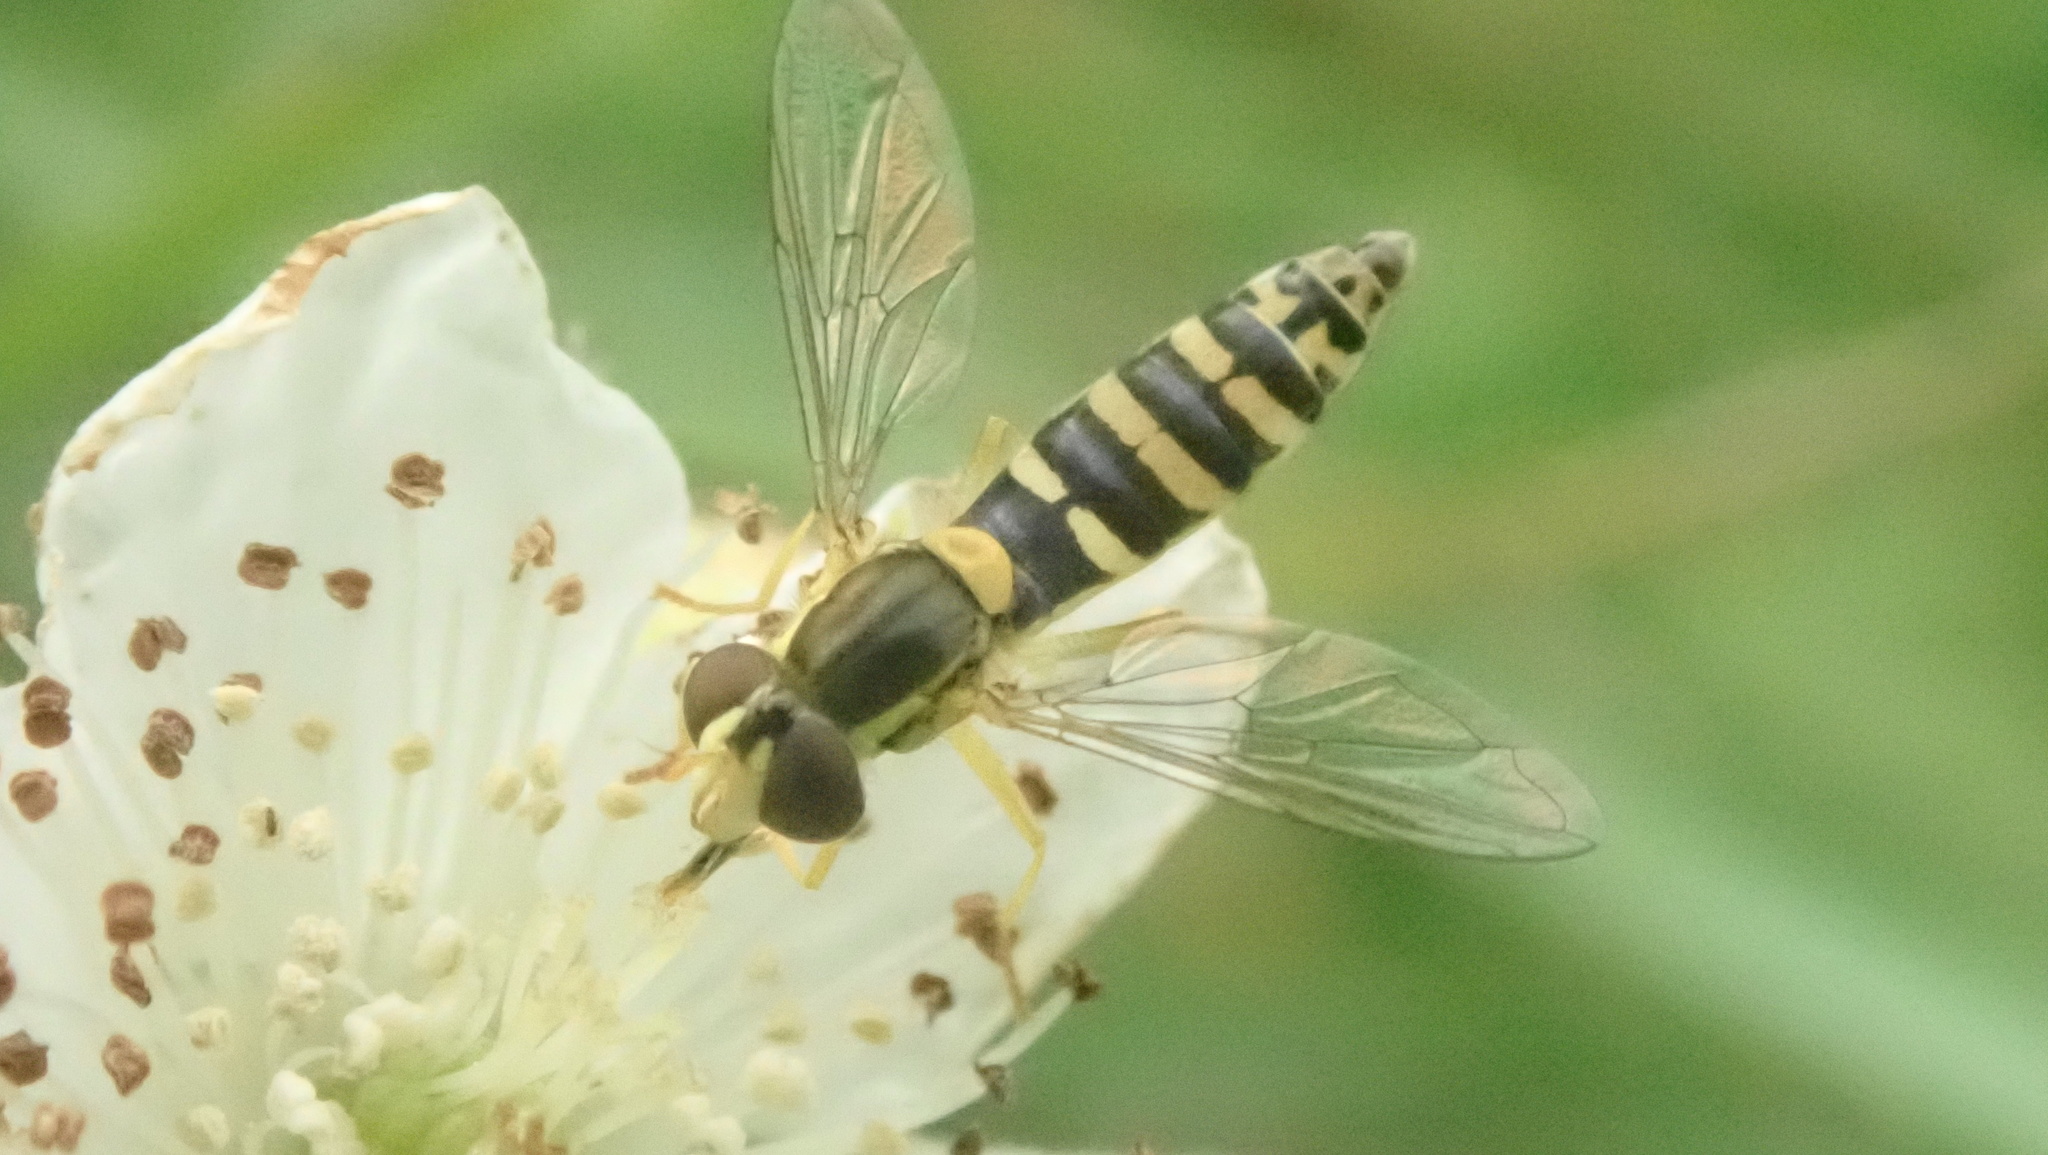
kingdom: Animalia
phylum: Arthropoda
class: Insecta
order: Diptera
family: Syrphidae
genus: Sphaerophoria
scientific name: Sphaerophoria
